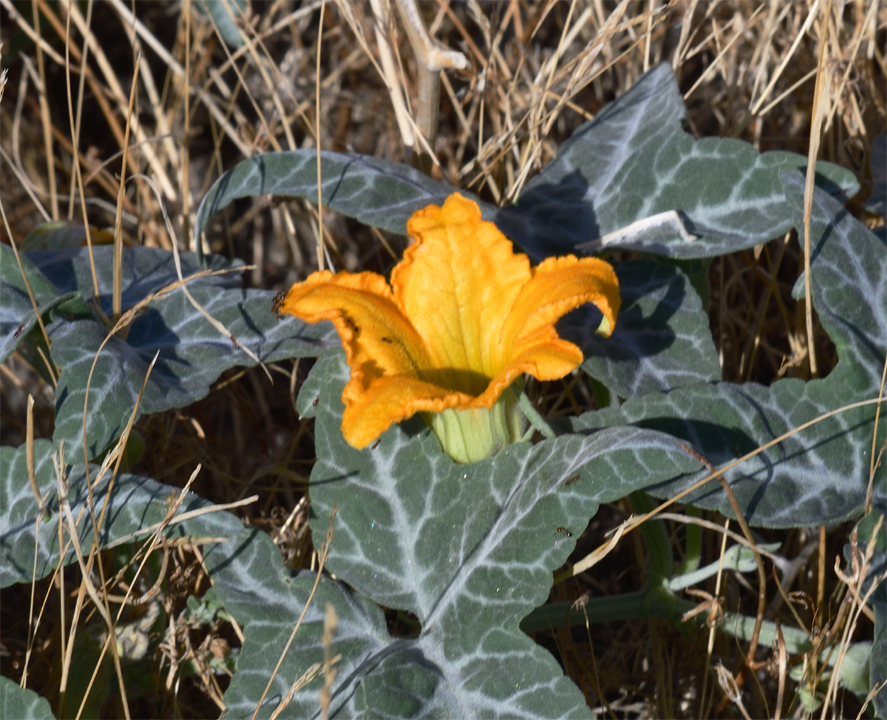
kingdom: Plantae
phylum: Tracheophyta
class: Magnoliopsida
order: Cucurbitales
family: Cucurbitaceae
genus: Cucurbita
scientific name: Cucurbita palmata
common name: Coyote-melon
